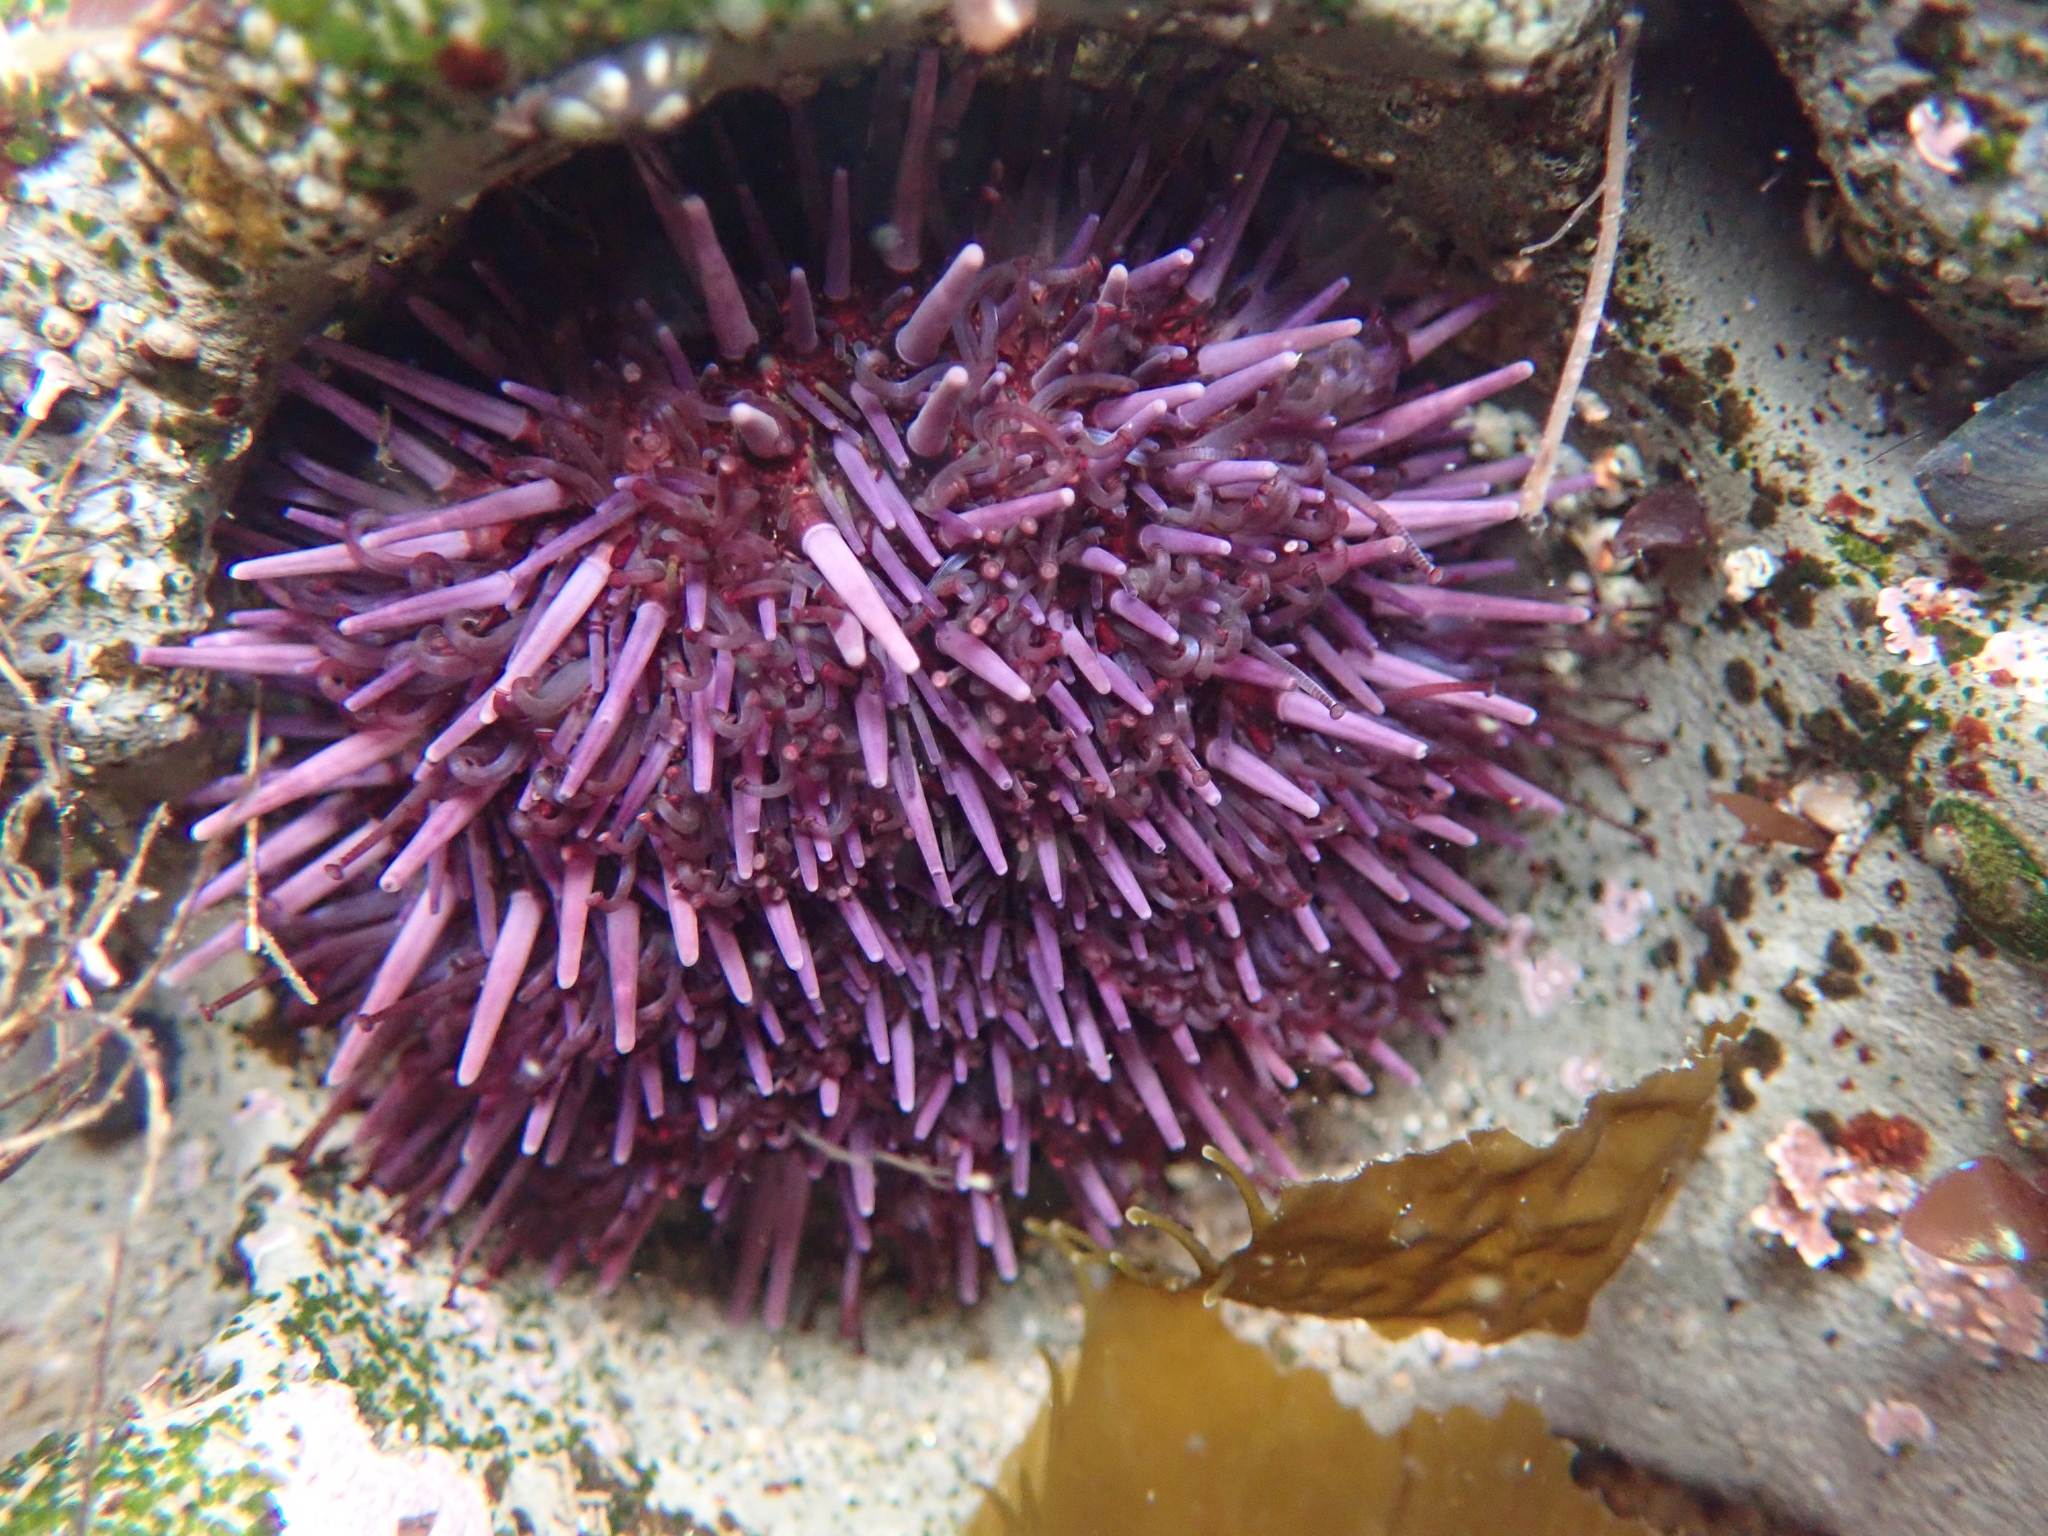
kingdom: Animalia
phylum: Echinodermata
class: Echinoidea
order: Camarodonta
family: Strongylocentrotidae
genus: Strongylocentrotus
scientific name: Strongylocentrotus purpuratus
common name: Purple sea urchin
